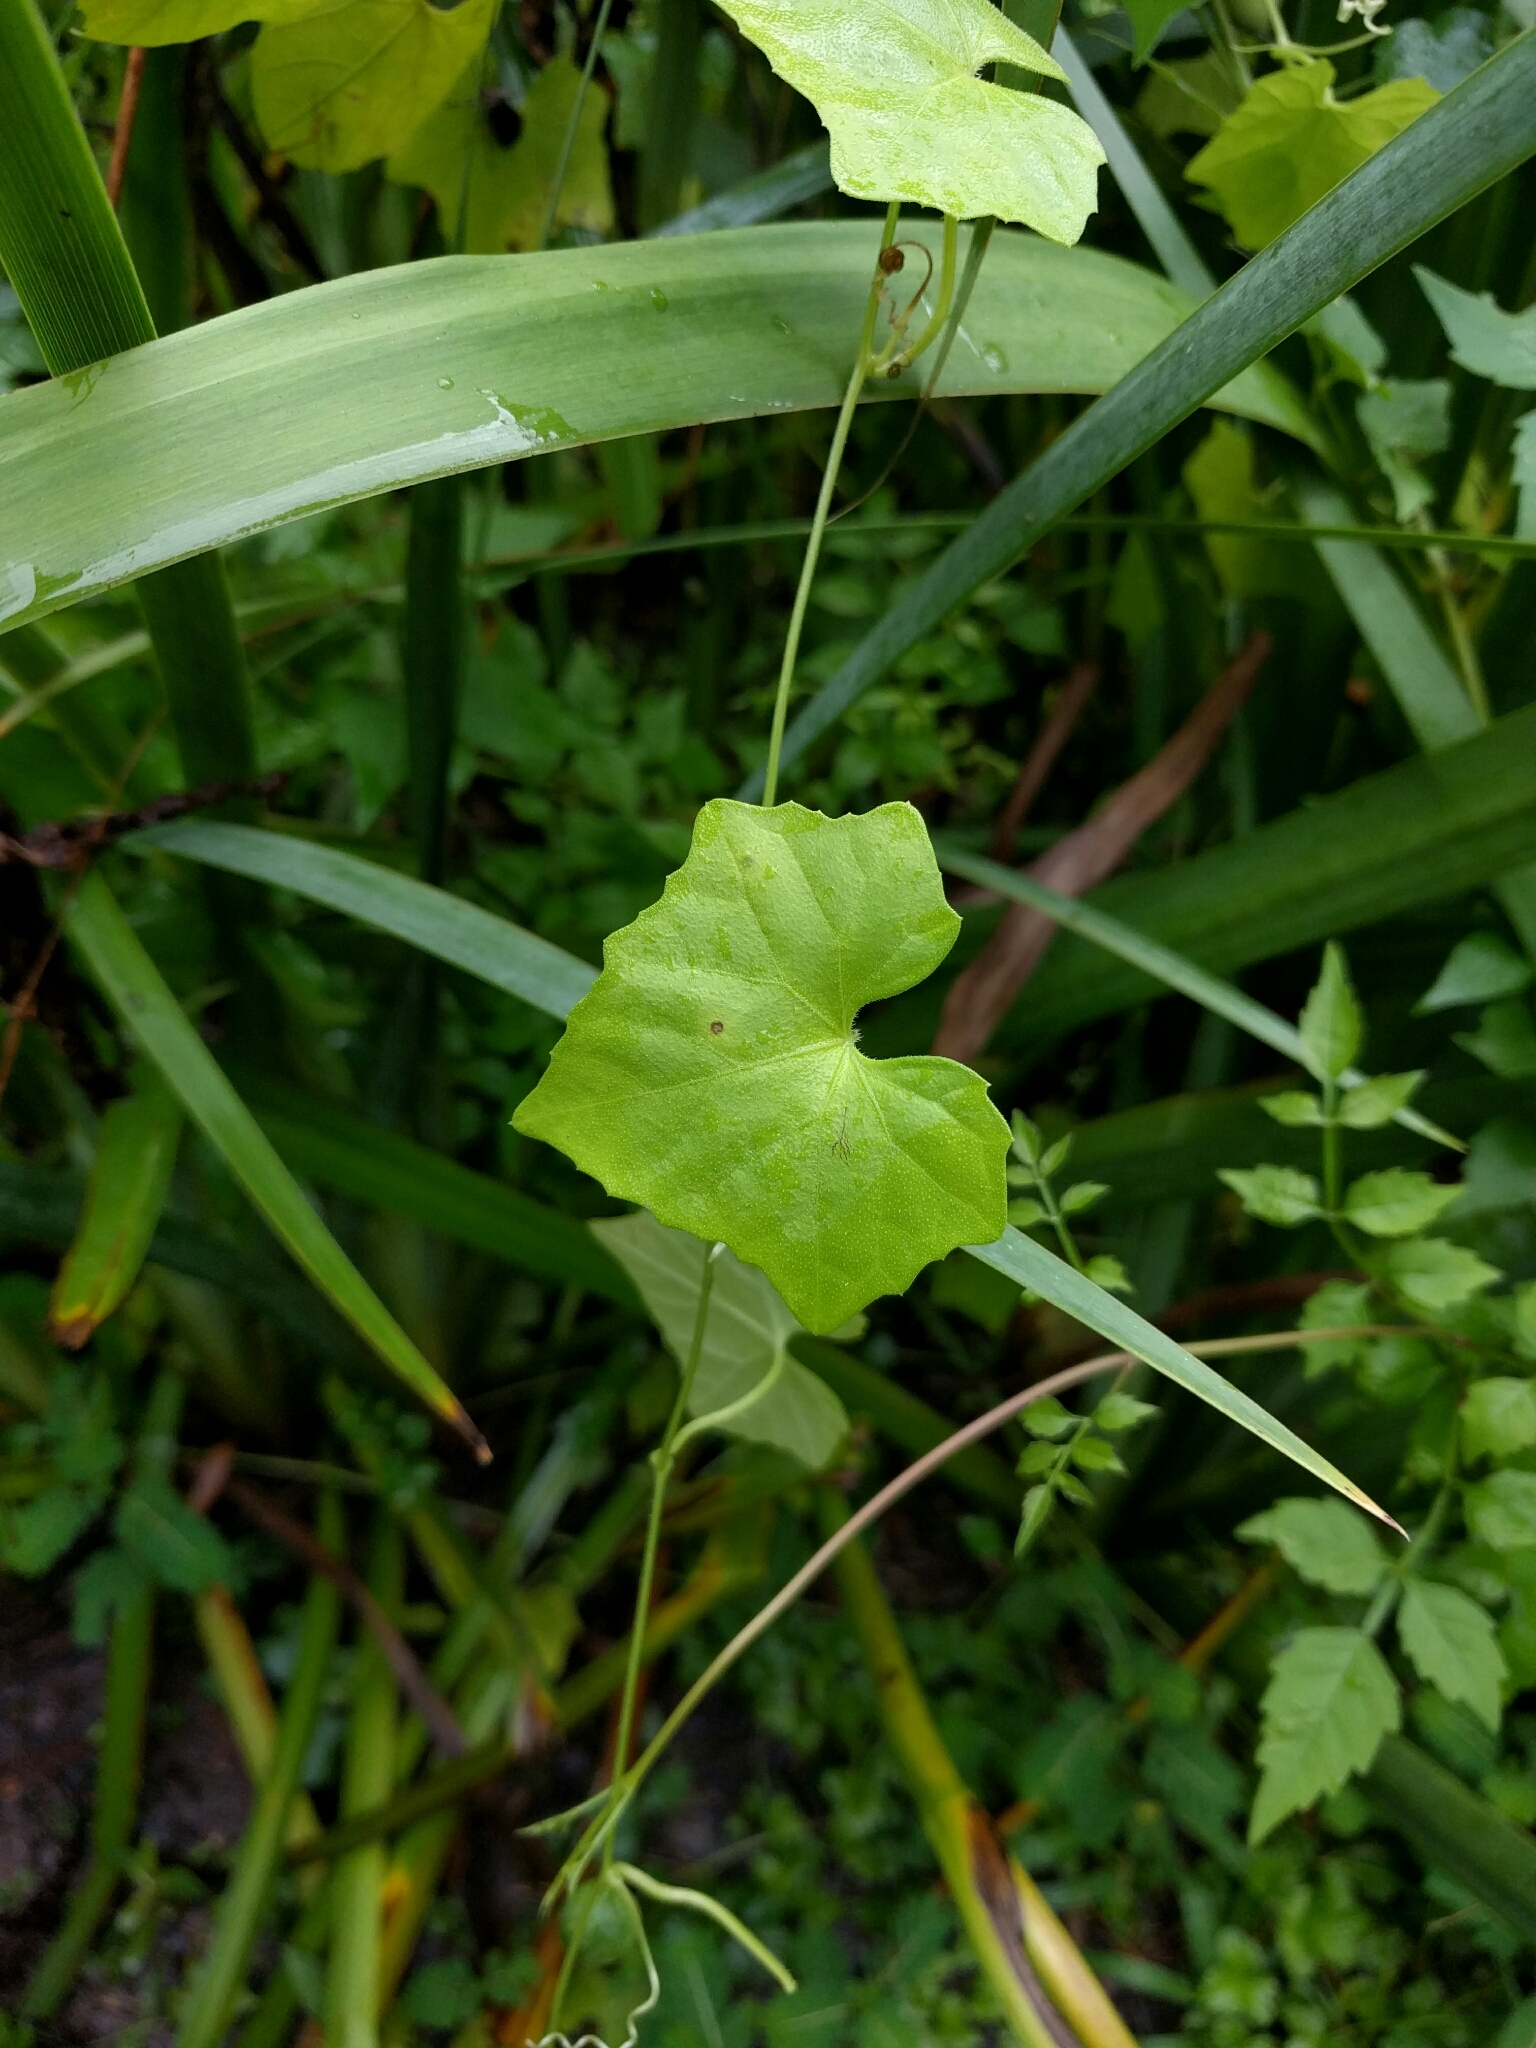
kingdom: Plantae
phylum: Tracheophyta
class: Magnoliopsida
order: Cucurbitales
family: Cucurbitaceae
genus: Melothria
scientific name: Melothria pendula
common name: Creeping-cucumber
